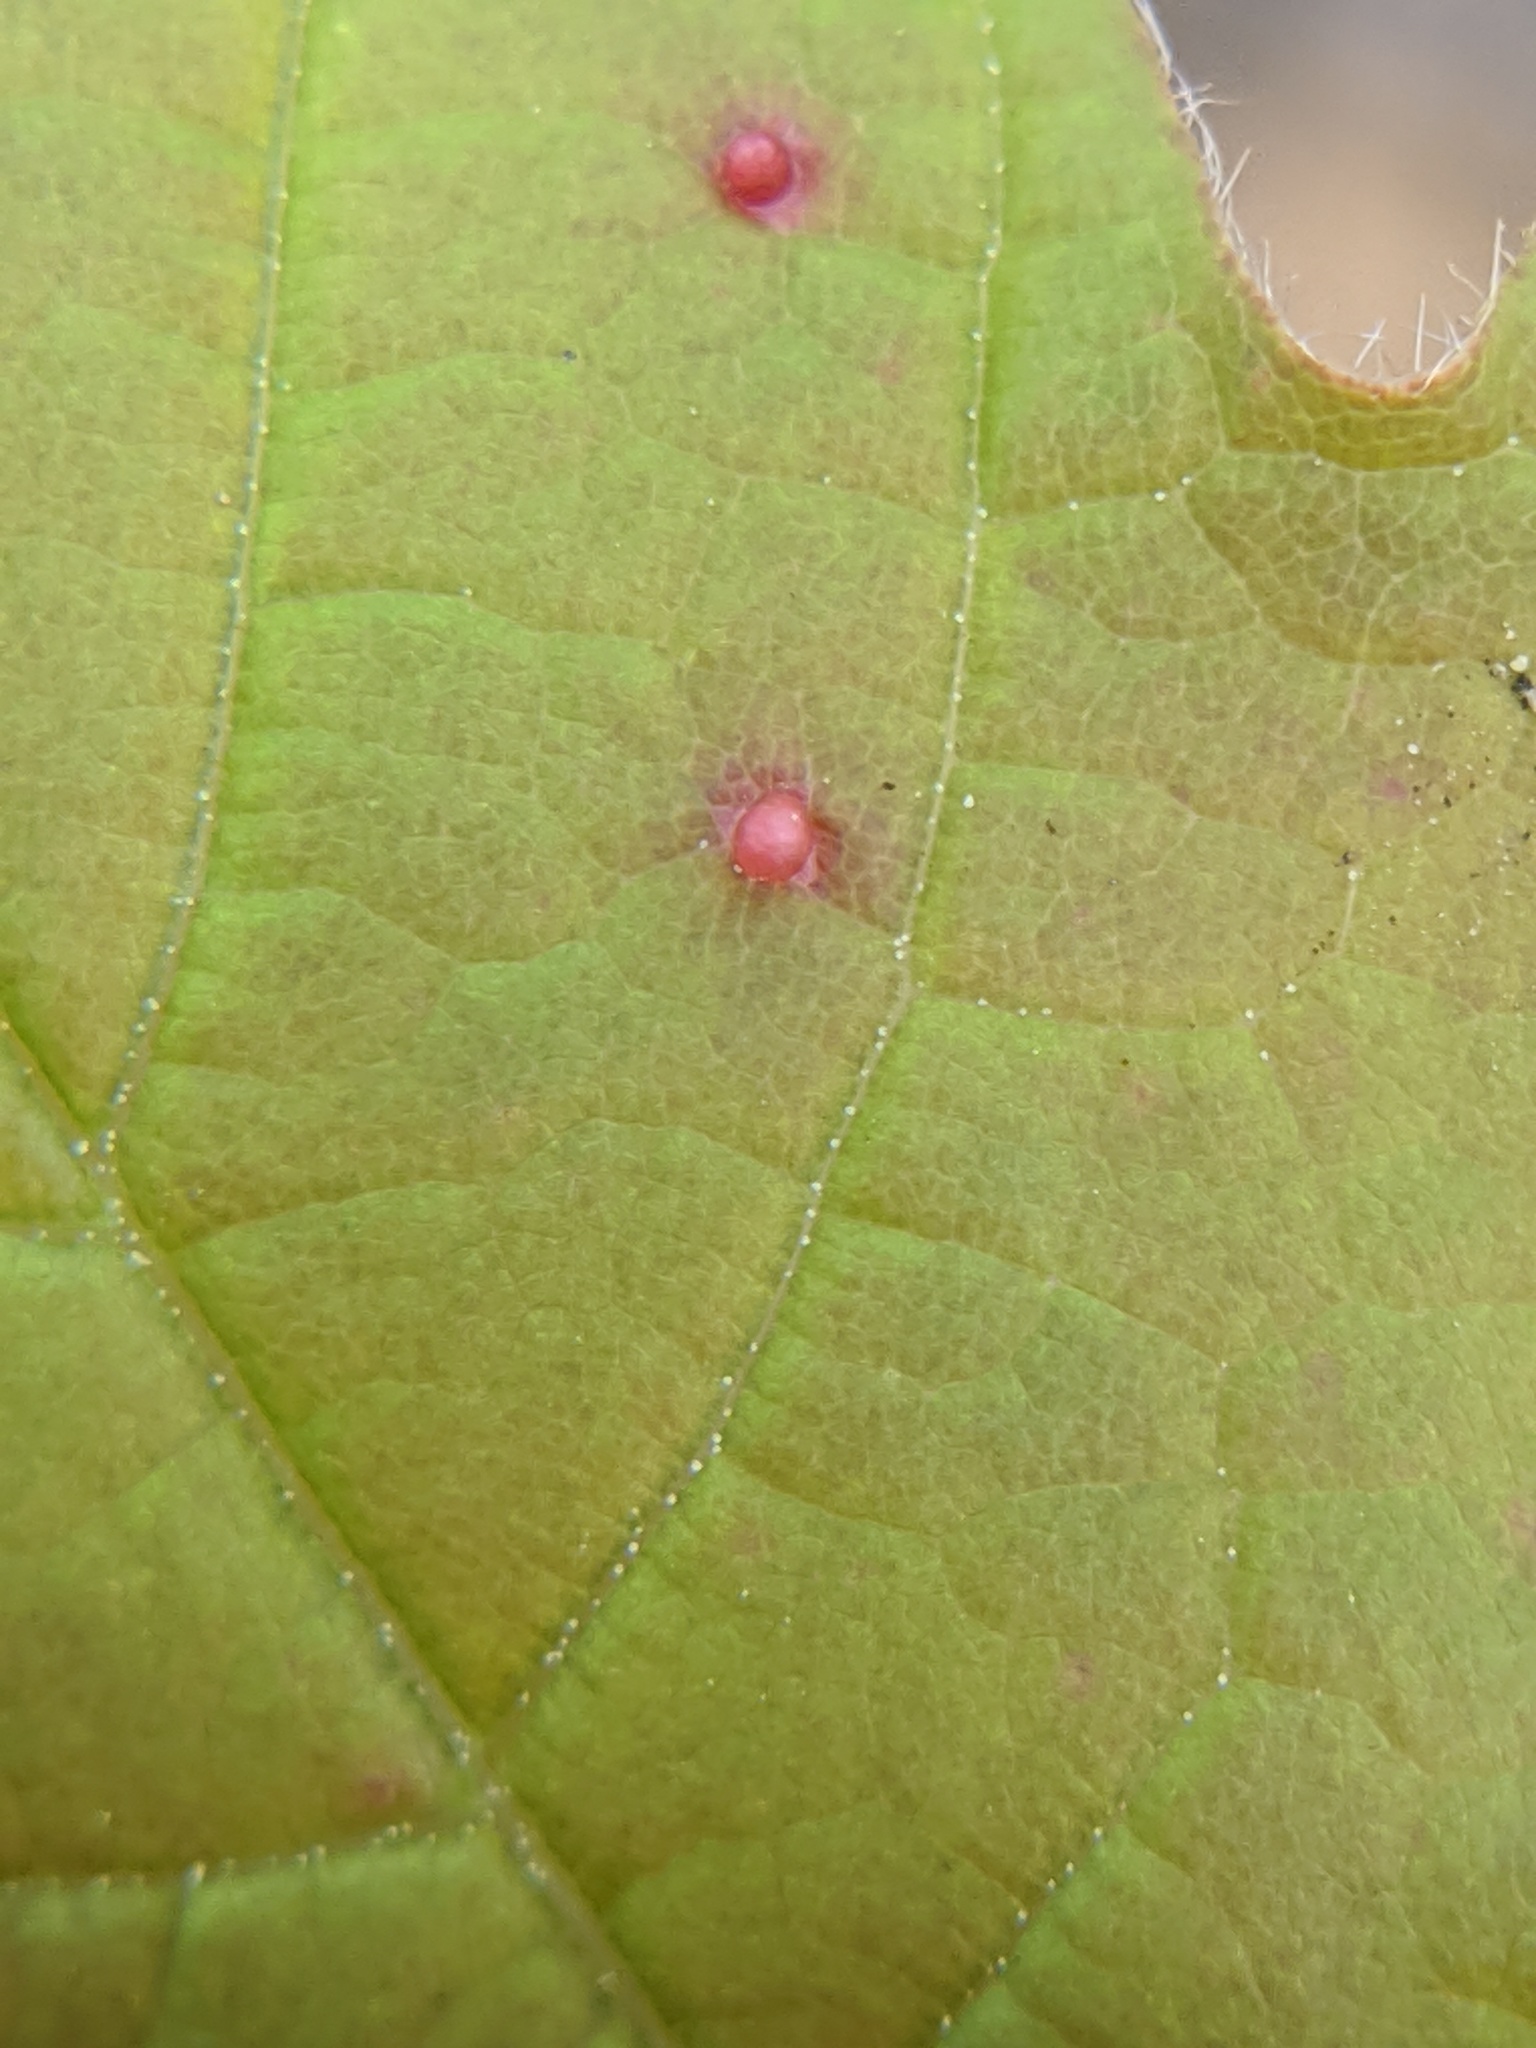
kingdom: Animalia
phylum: Arthropoda
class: Arachnida
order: Trombidiformes
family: Eriophyidae
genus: Vasates
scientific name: Vasates aceriscrumena
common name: Maple spindle gall mite
